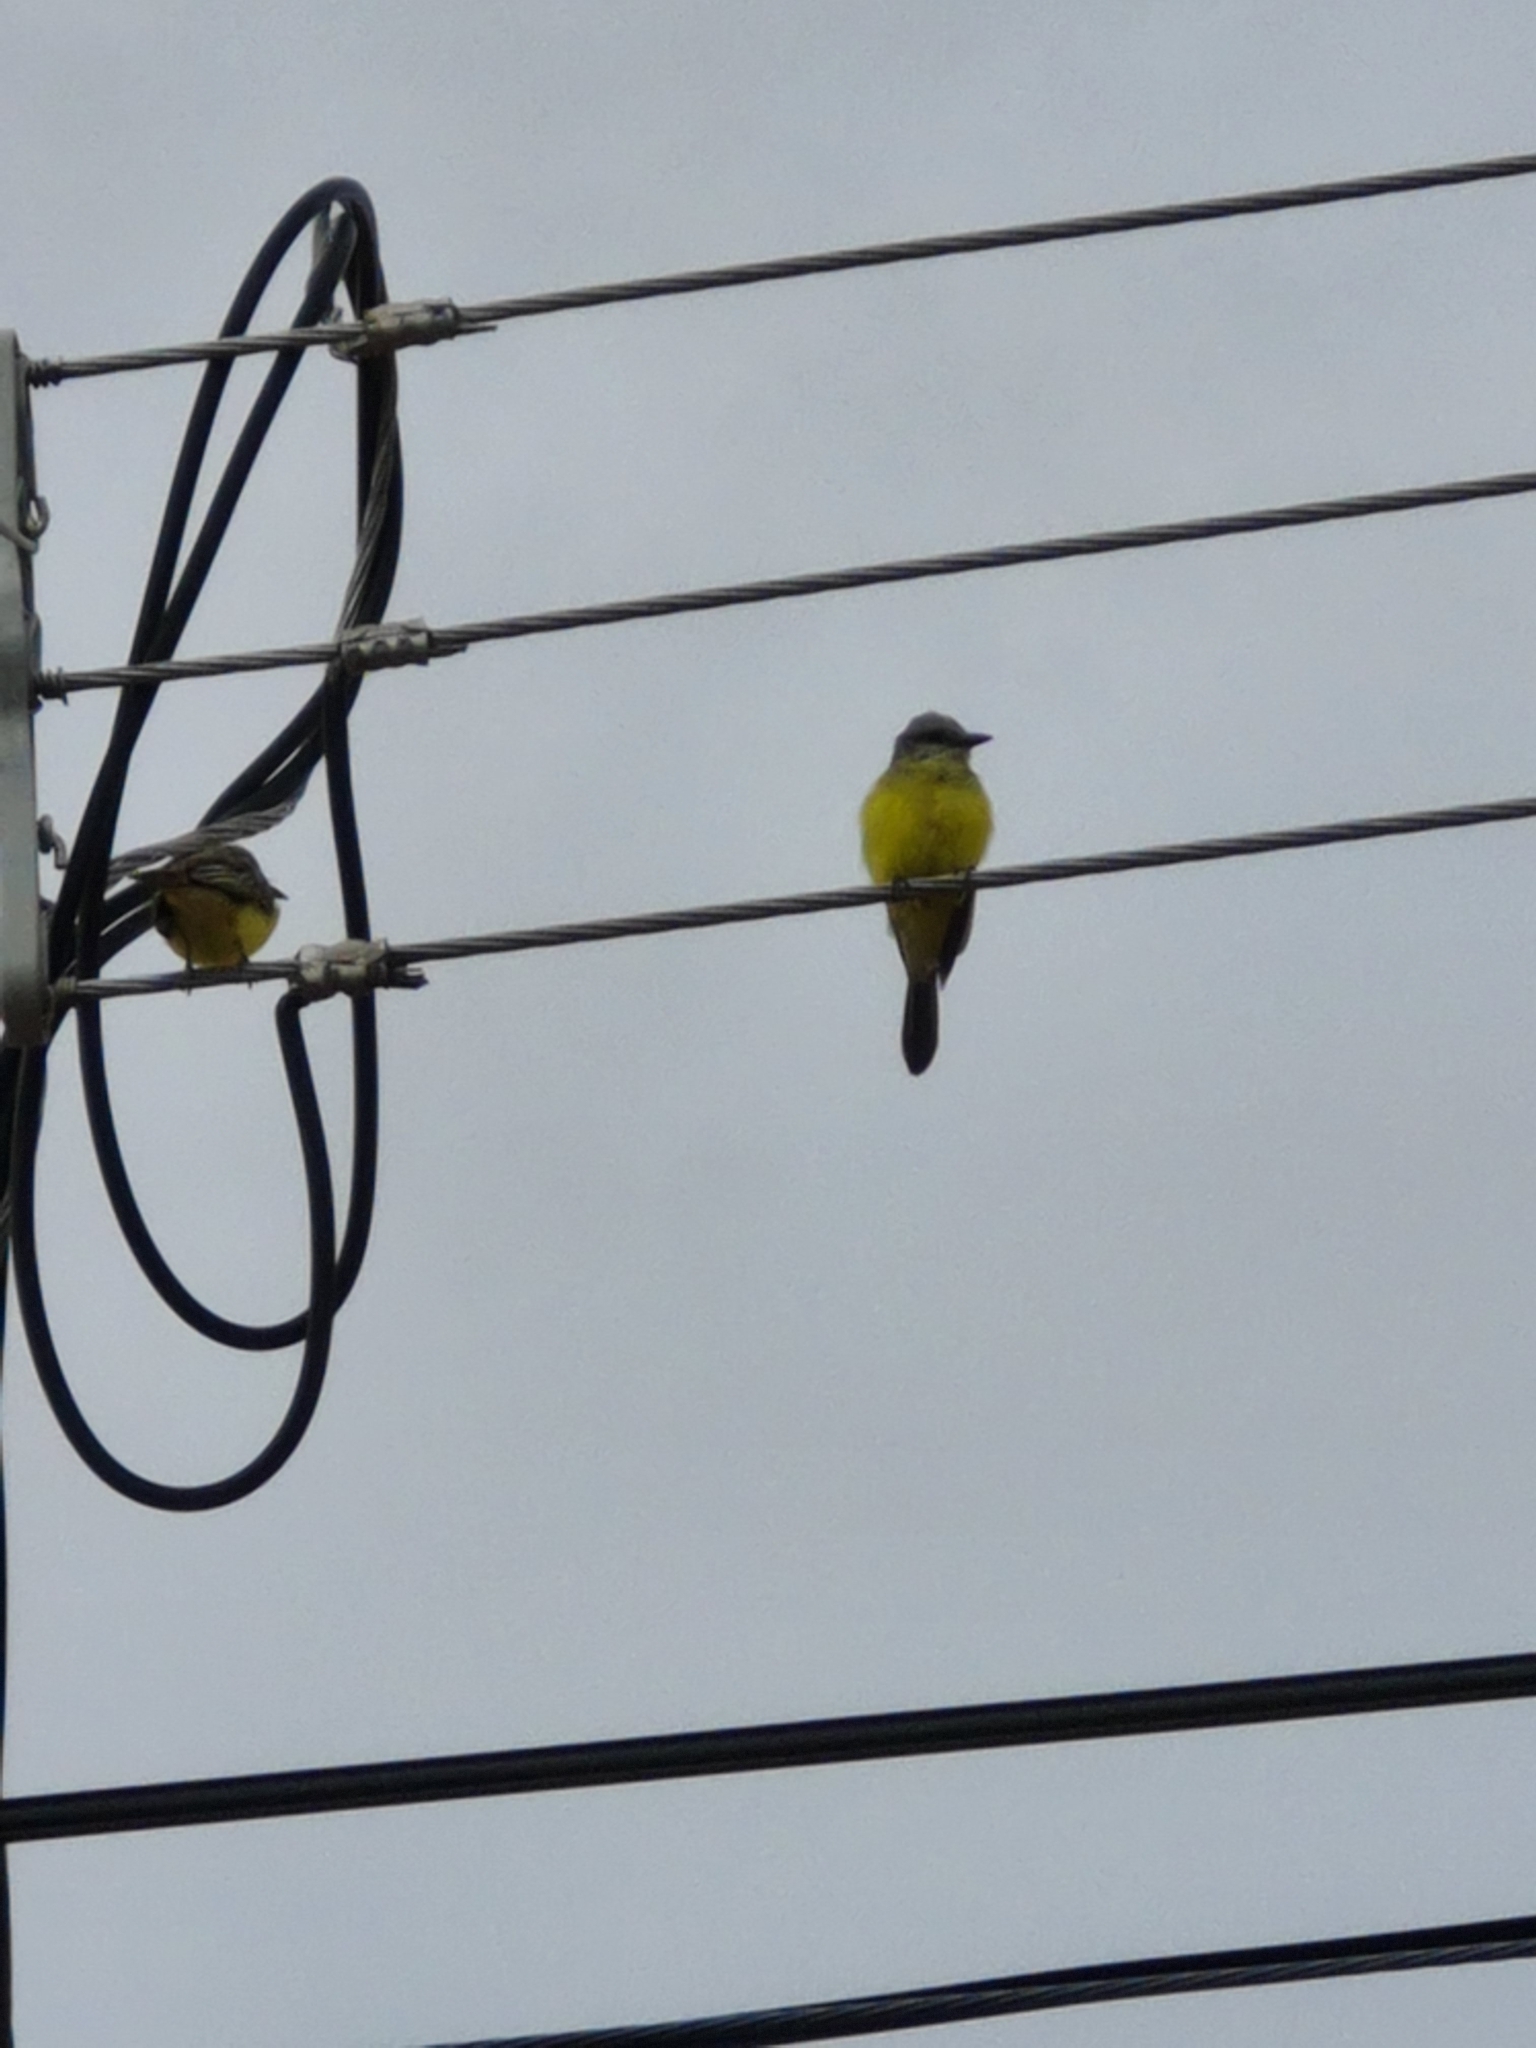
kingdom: Animalia
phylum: Chordata
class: Aves
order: Passeriformes
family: Tyrannidae
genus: Tyrannus
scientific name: Tyrannus melancholicus
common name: Tropical kingbird
